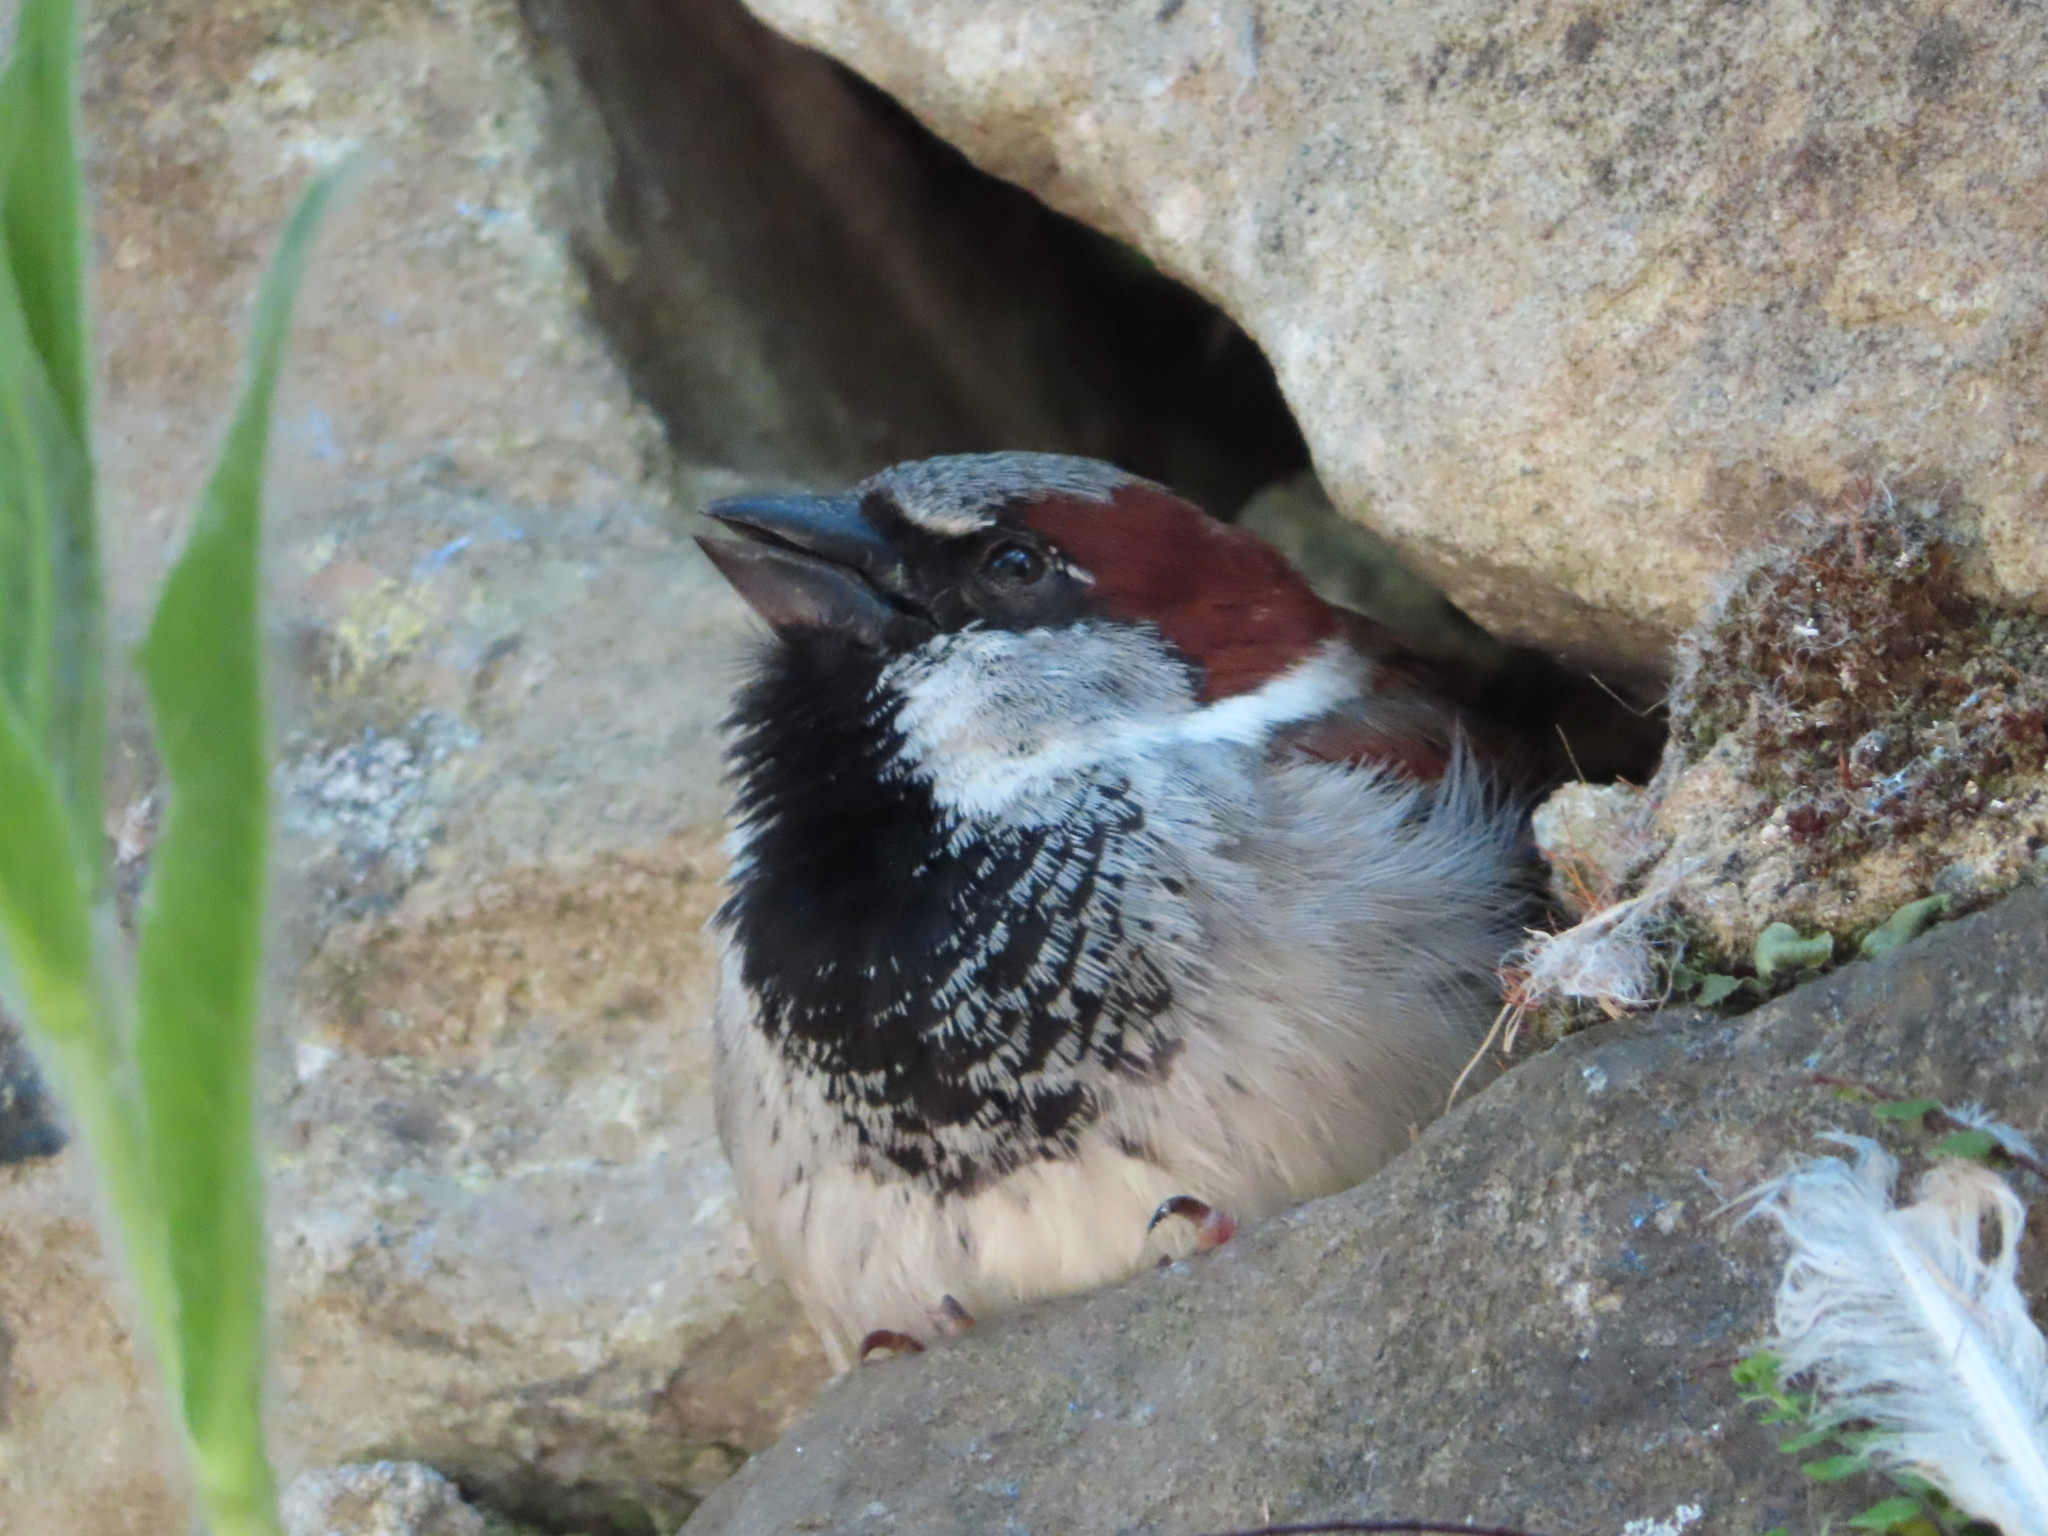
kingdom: Animalia
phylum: Chordata
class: Aves
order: Passeriformes
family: Passeridae
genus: Passer
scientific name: Passer domesticus
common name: House sparrow
